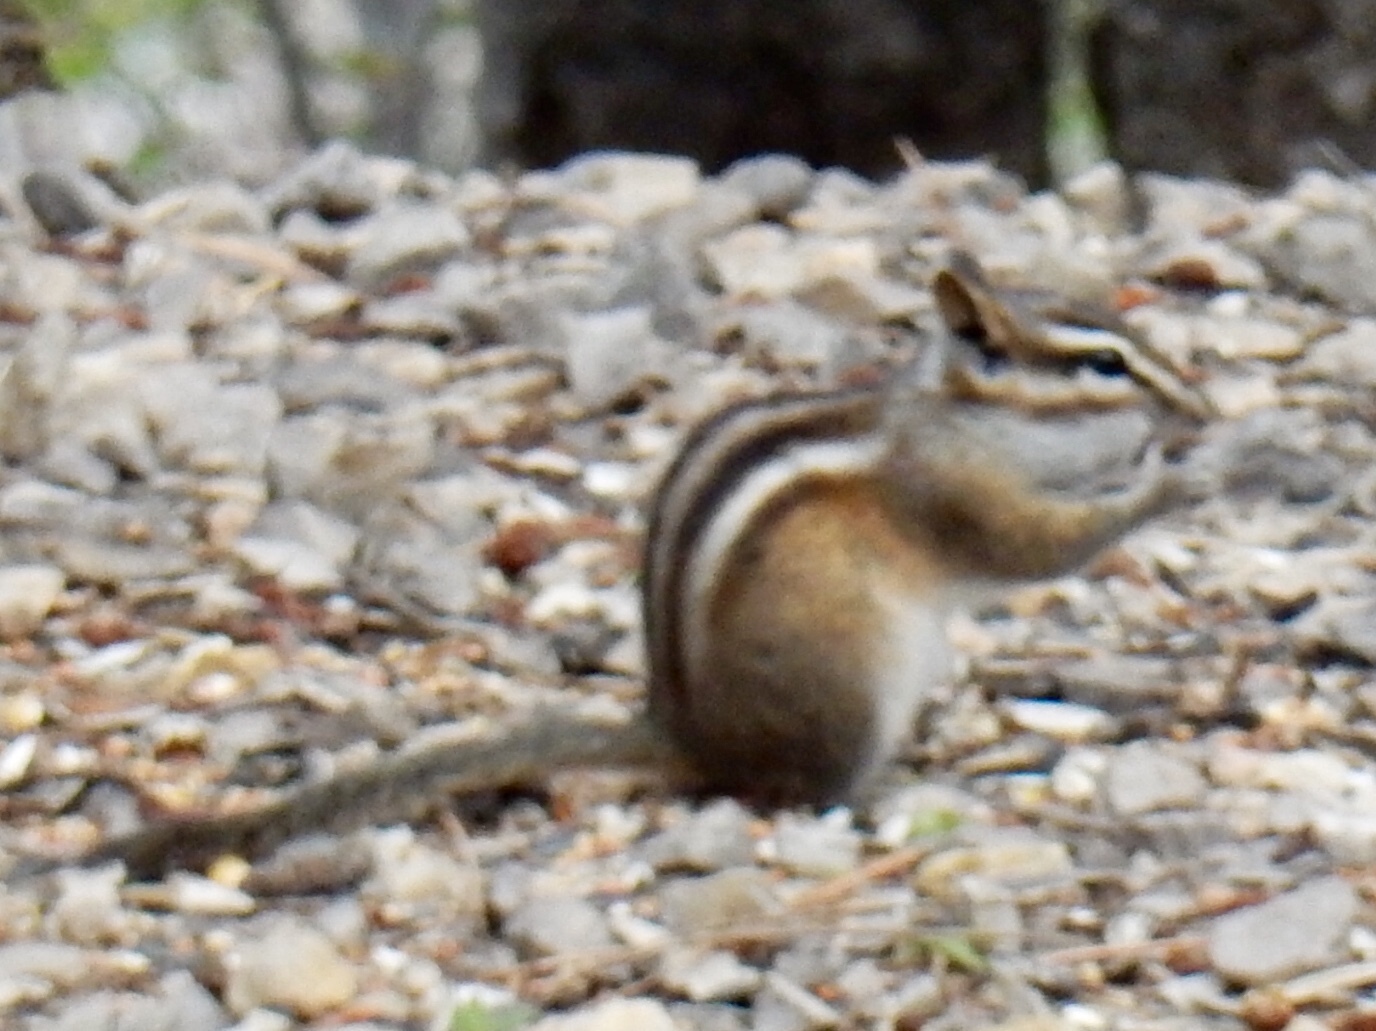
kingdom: Animalia
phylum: Chordata
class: Mammalia
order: Rodentia
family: Sciuridae
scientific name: Sciuridae
